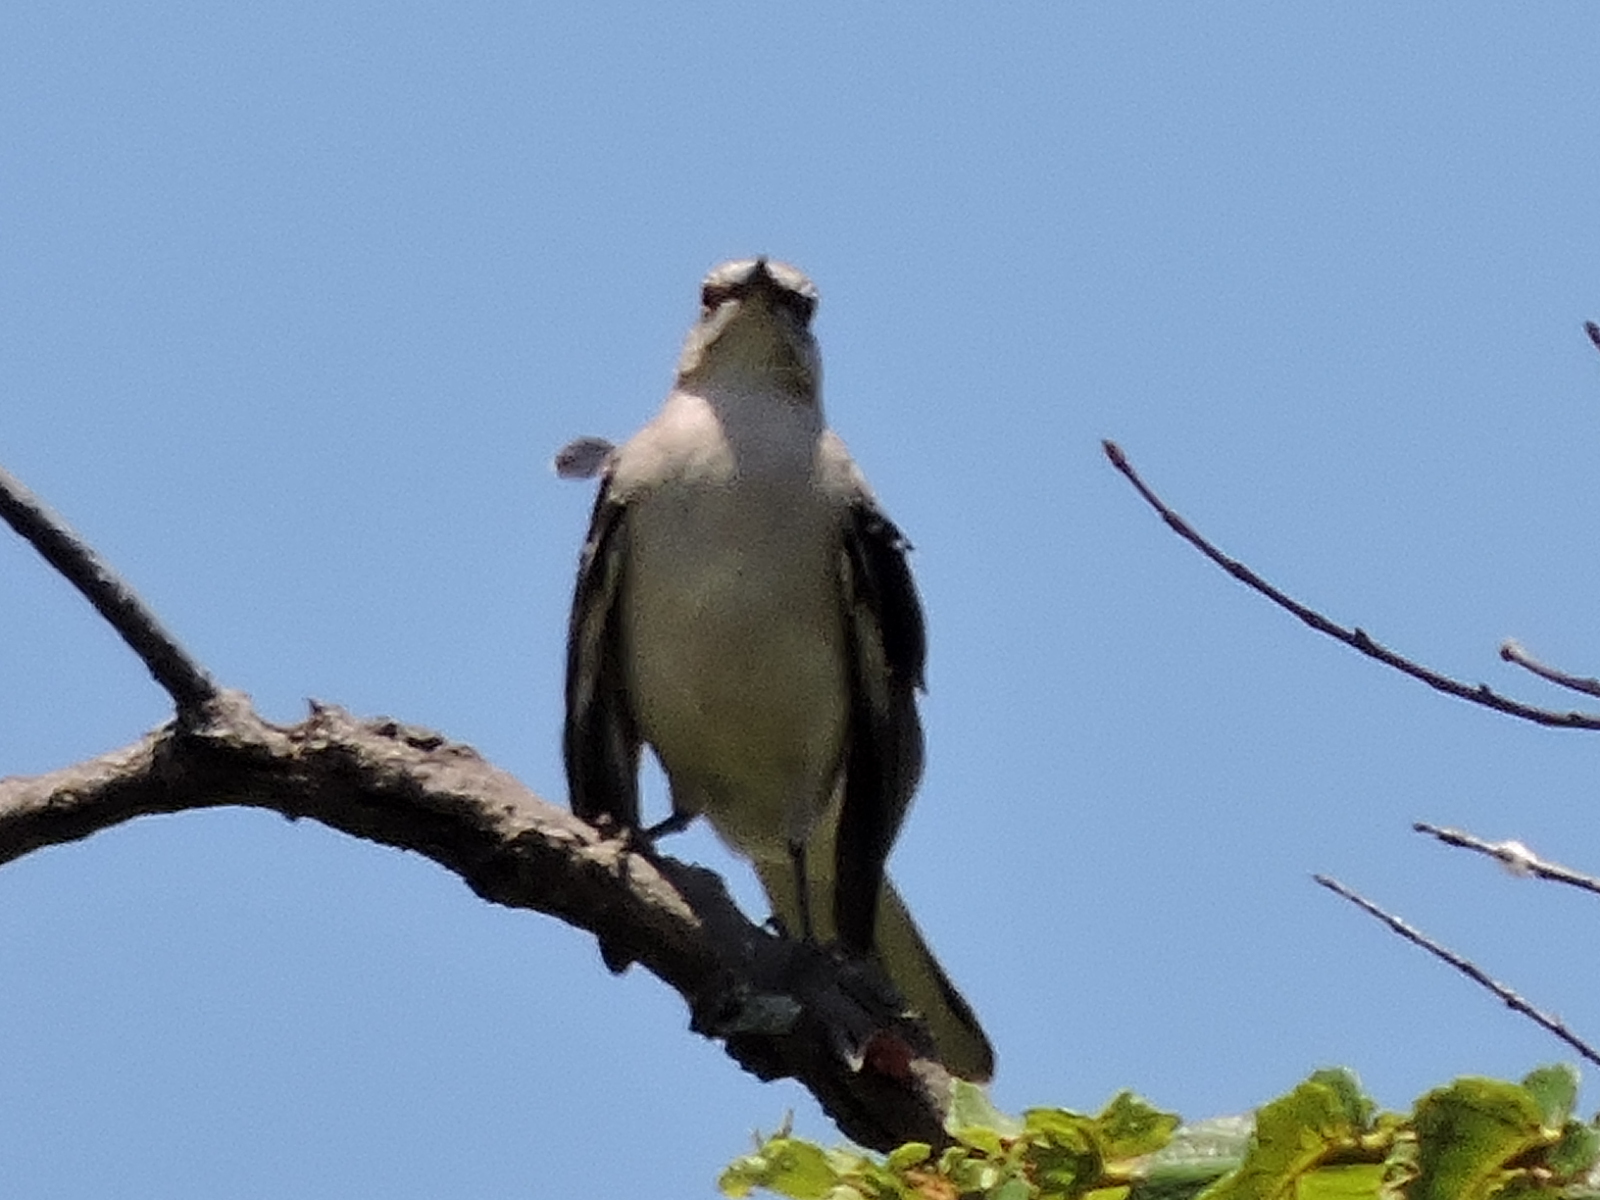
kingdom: Animalia
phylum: Chordata
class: Aves
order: Passeriformes
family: Mimidae
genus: Mimus
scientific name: Mimus polyglottos
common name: Northern mockingbird
